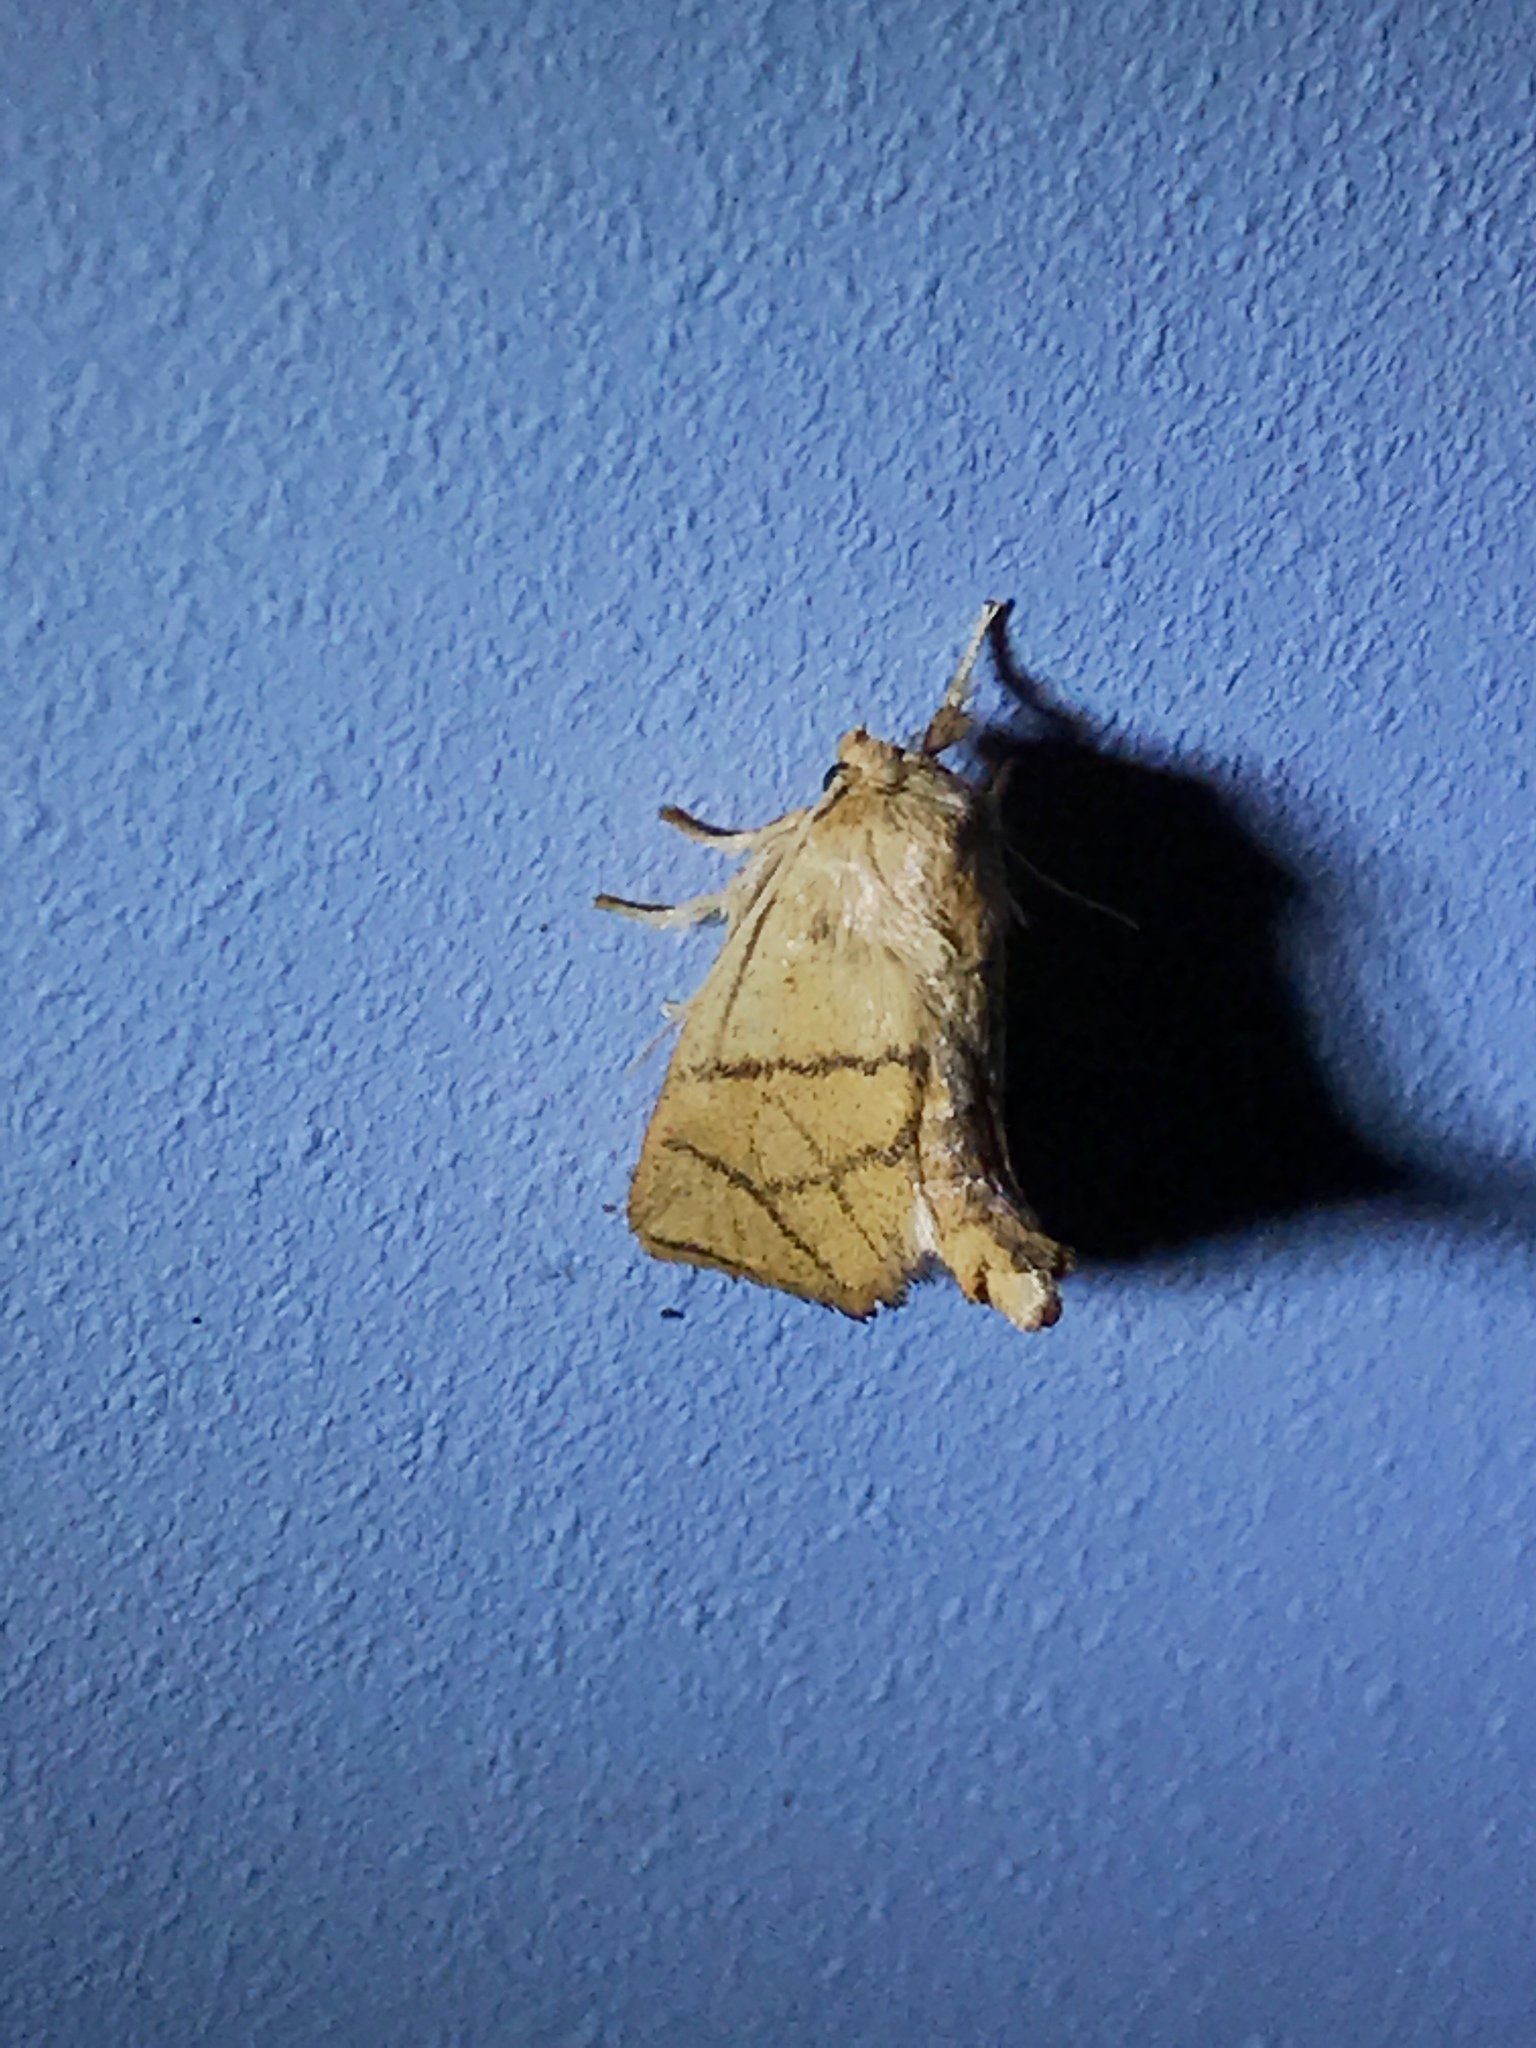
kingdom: Animalia
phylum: Arthropoda
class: Insecta
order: Lepidoptera
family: Limacodidae
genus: Apoda
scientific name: Apoda y-inversa
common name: Yellow-collared slug moth
